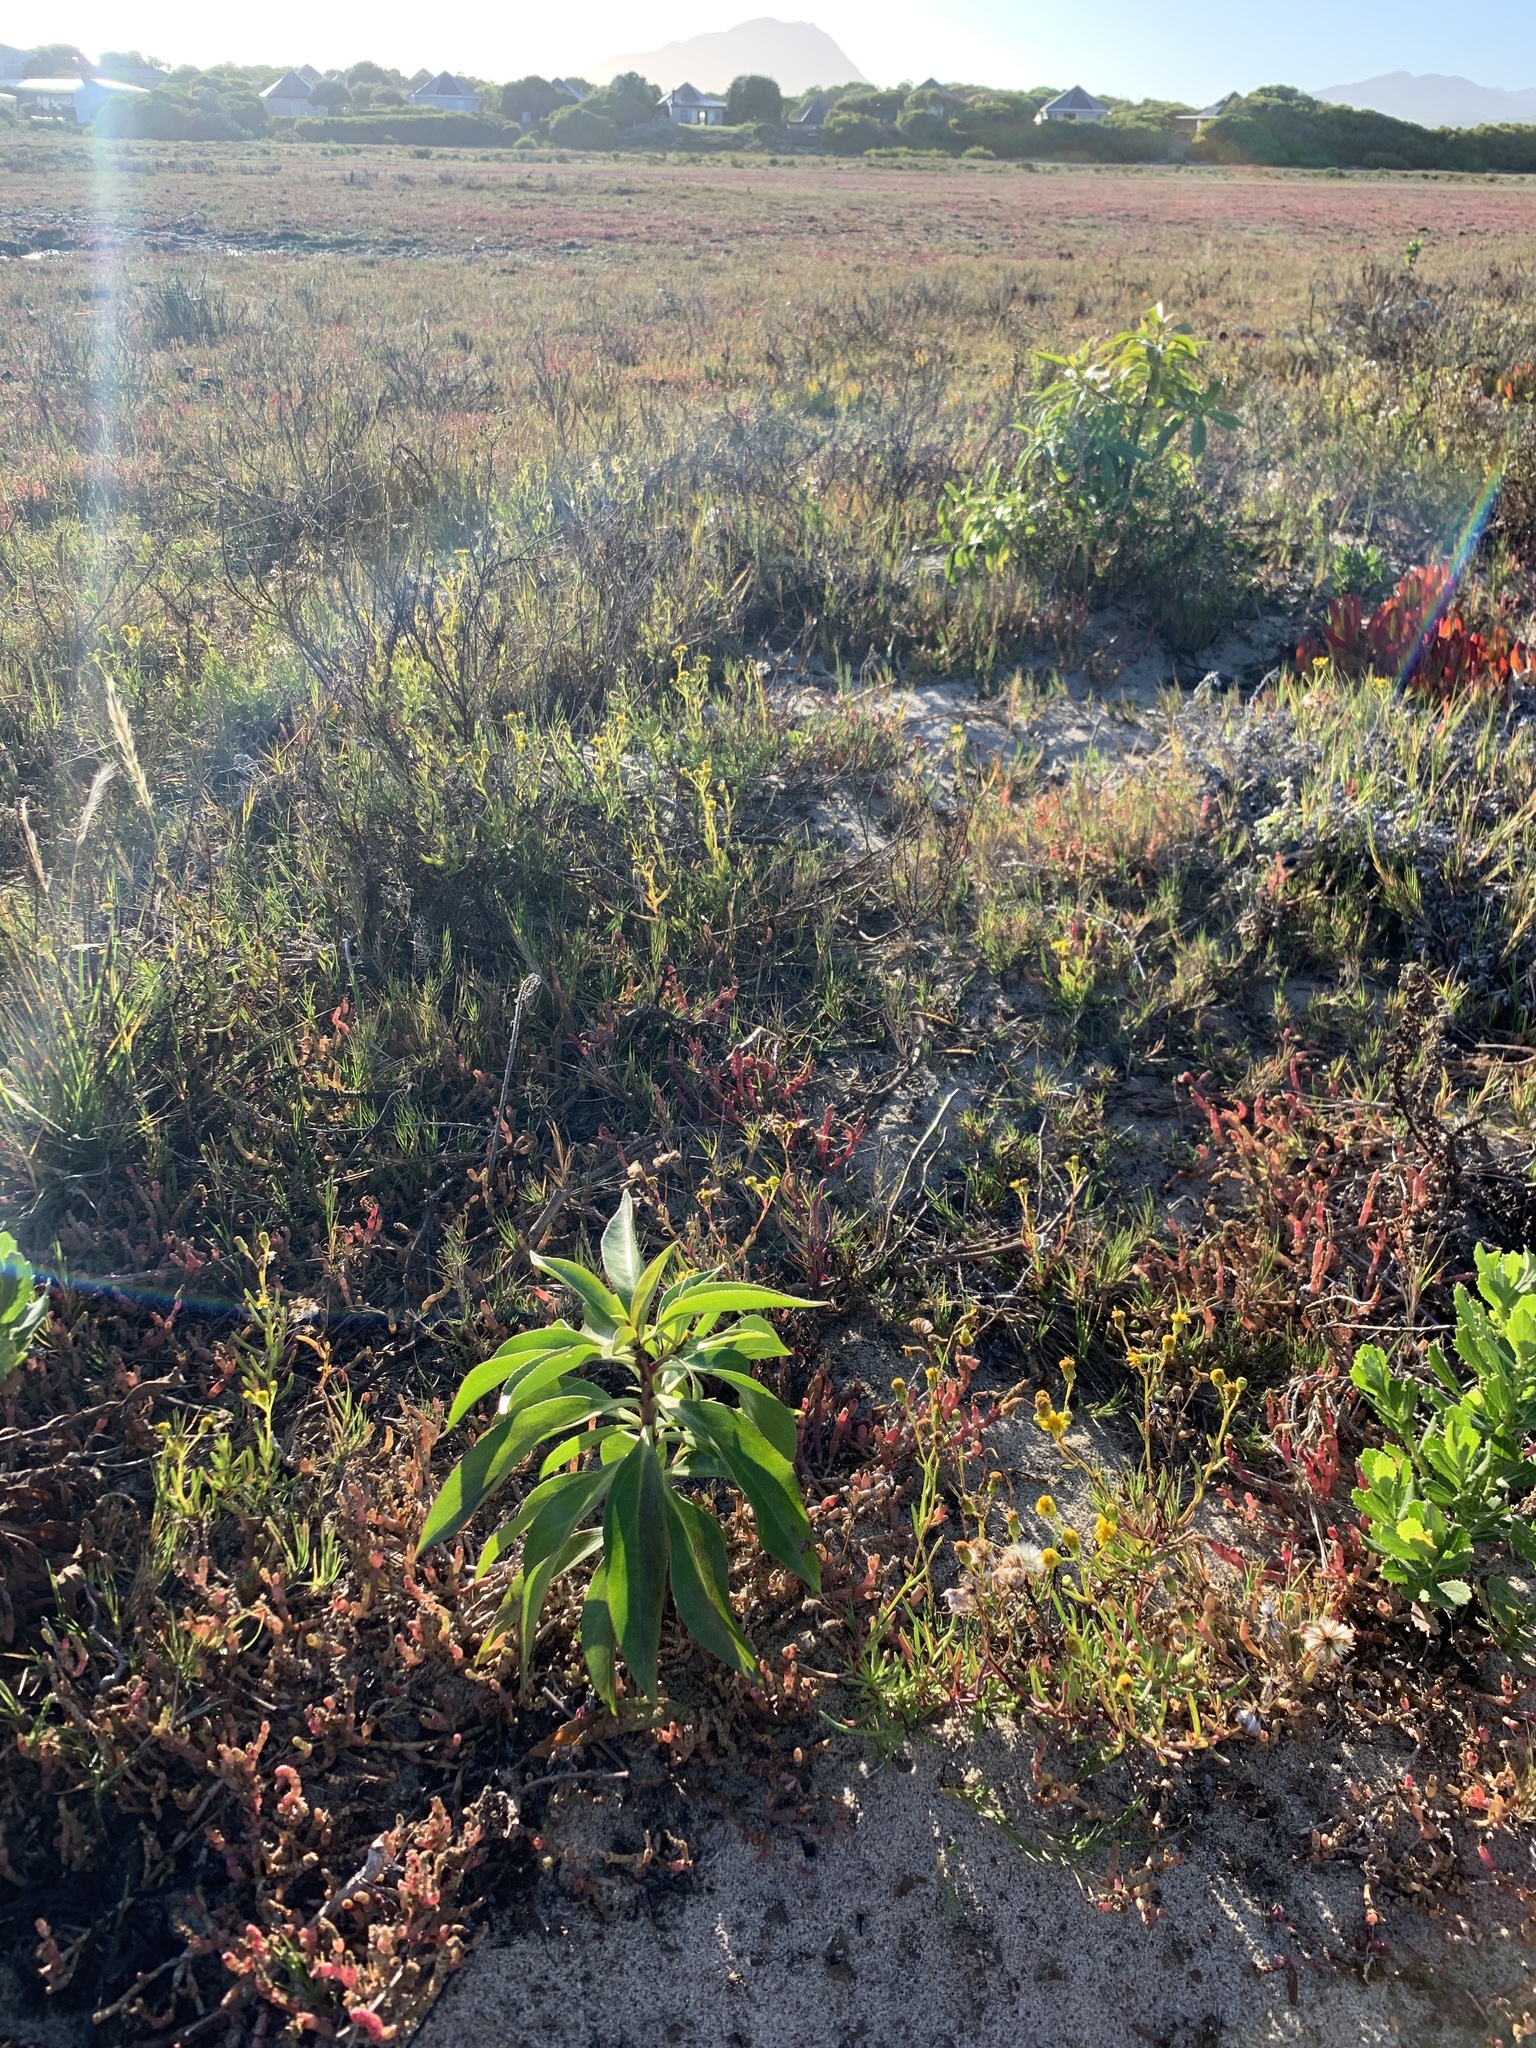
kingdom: Plantae
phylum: Tracheophyta
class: Magnoliopsida
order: Lamiales
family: Scrophulariaceae
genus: Myoporum
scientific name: Myoporum insulare
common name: Common boobialla
